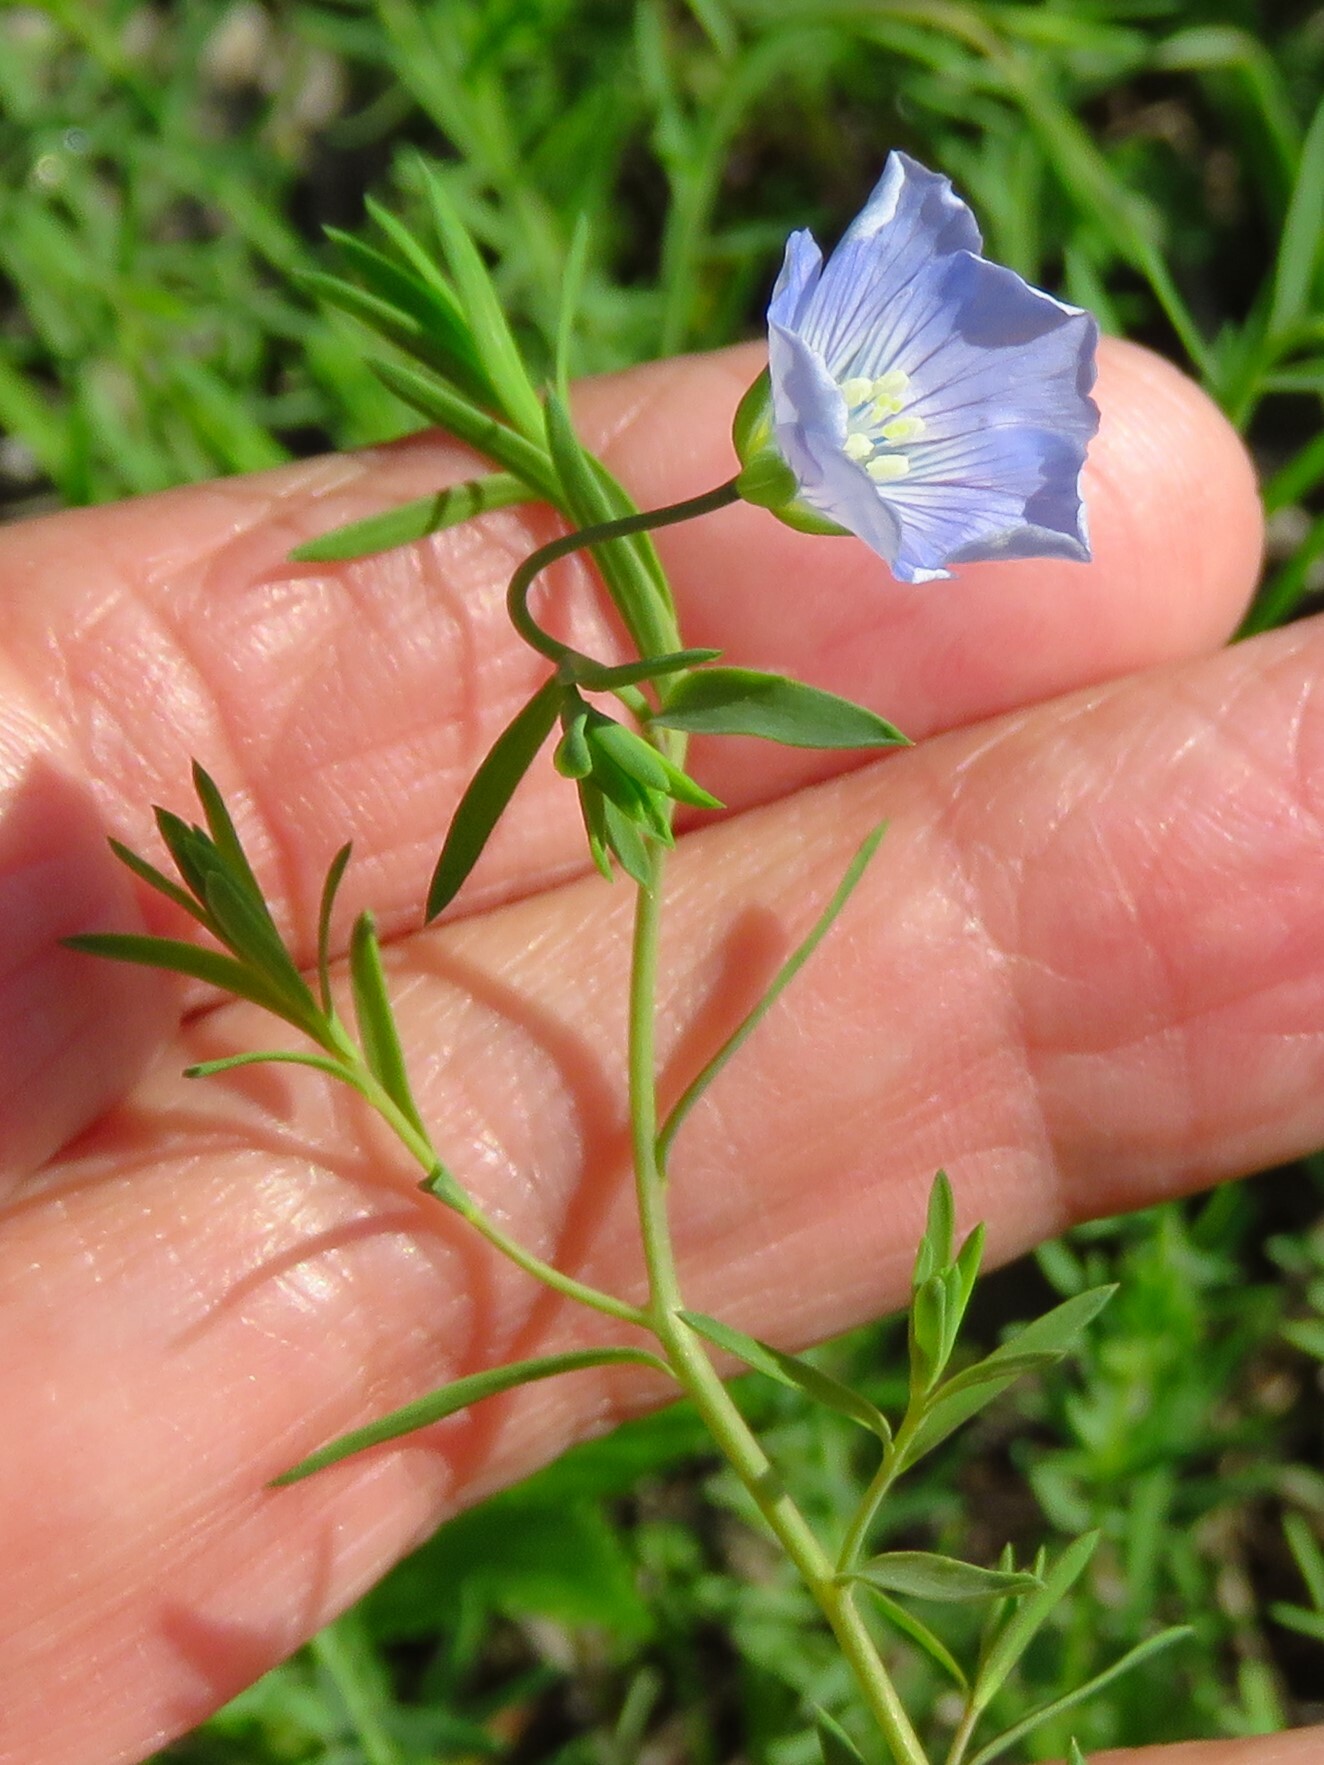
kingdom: Plantae
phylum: Tracheophyta
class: Magnoliopsida
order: Malpighiales
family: Linaceae
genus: Linum
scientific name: Linum pratense
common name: Norton's flax
